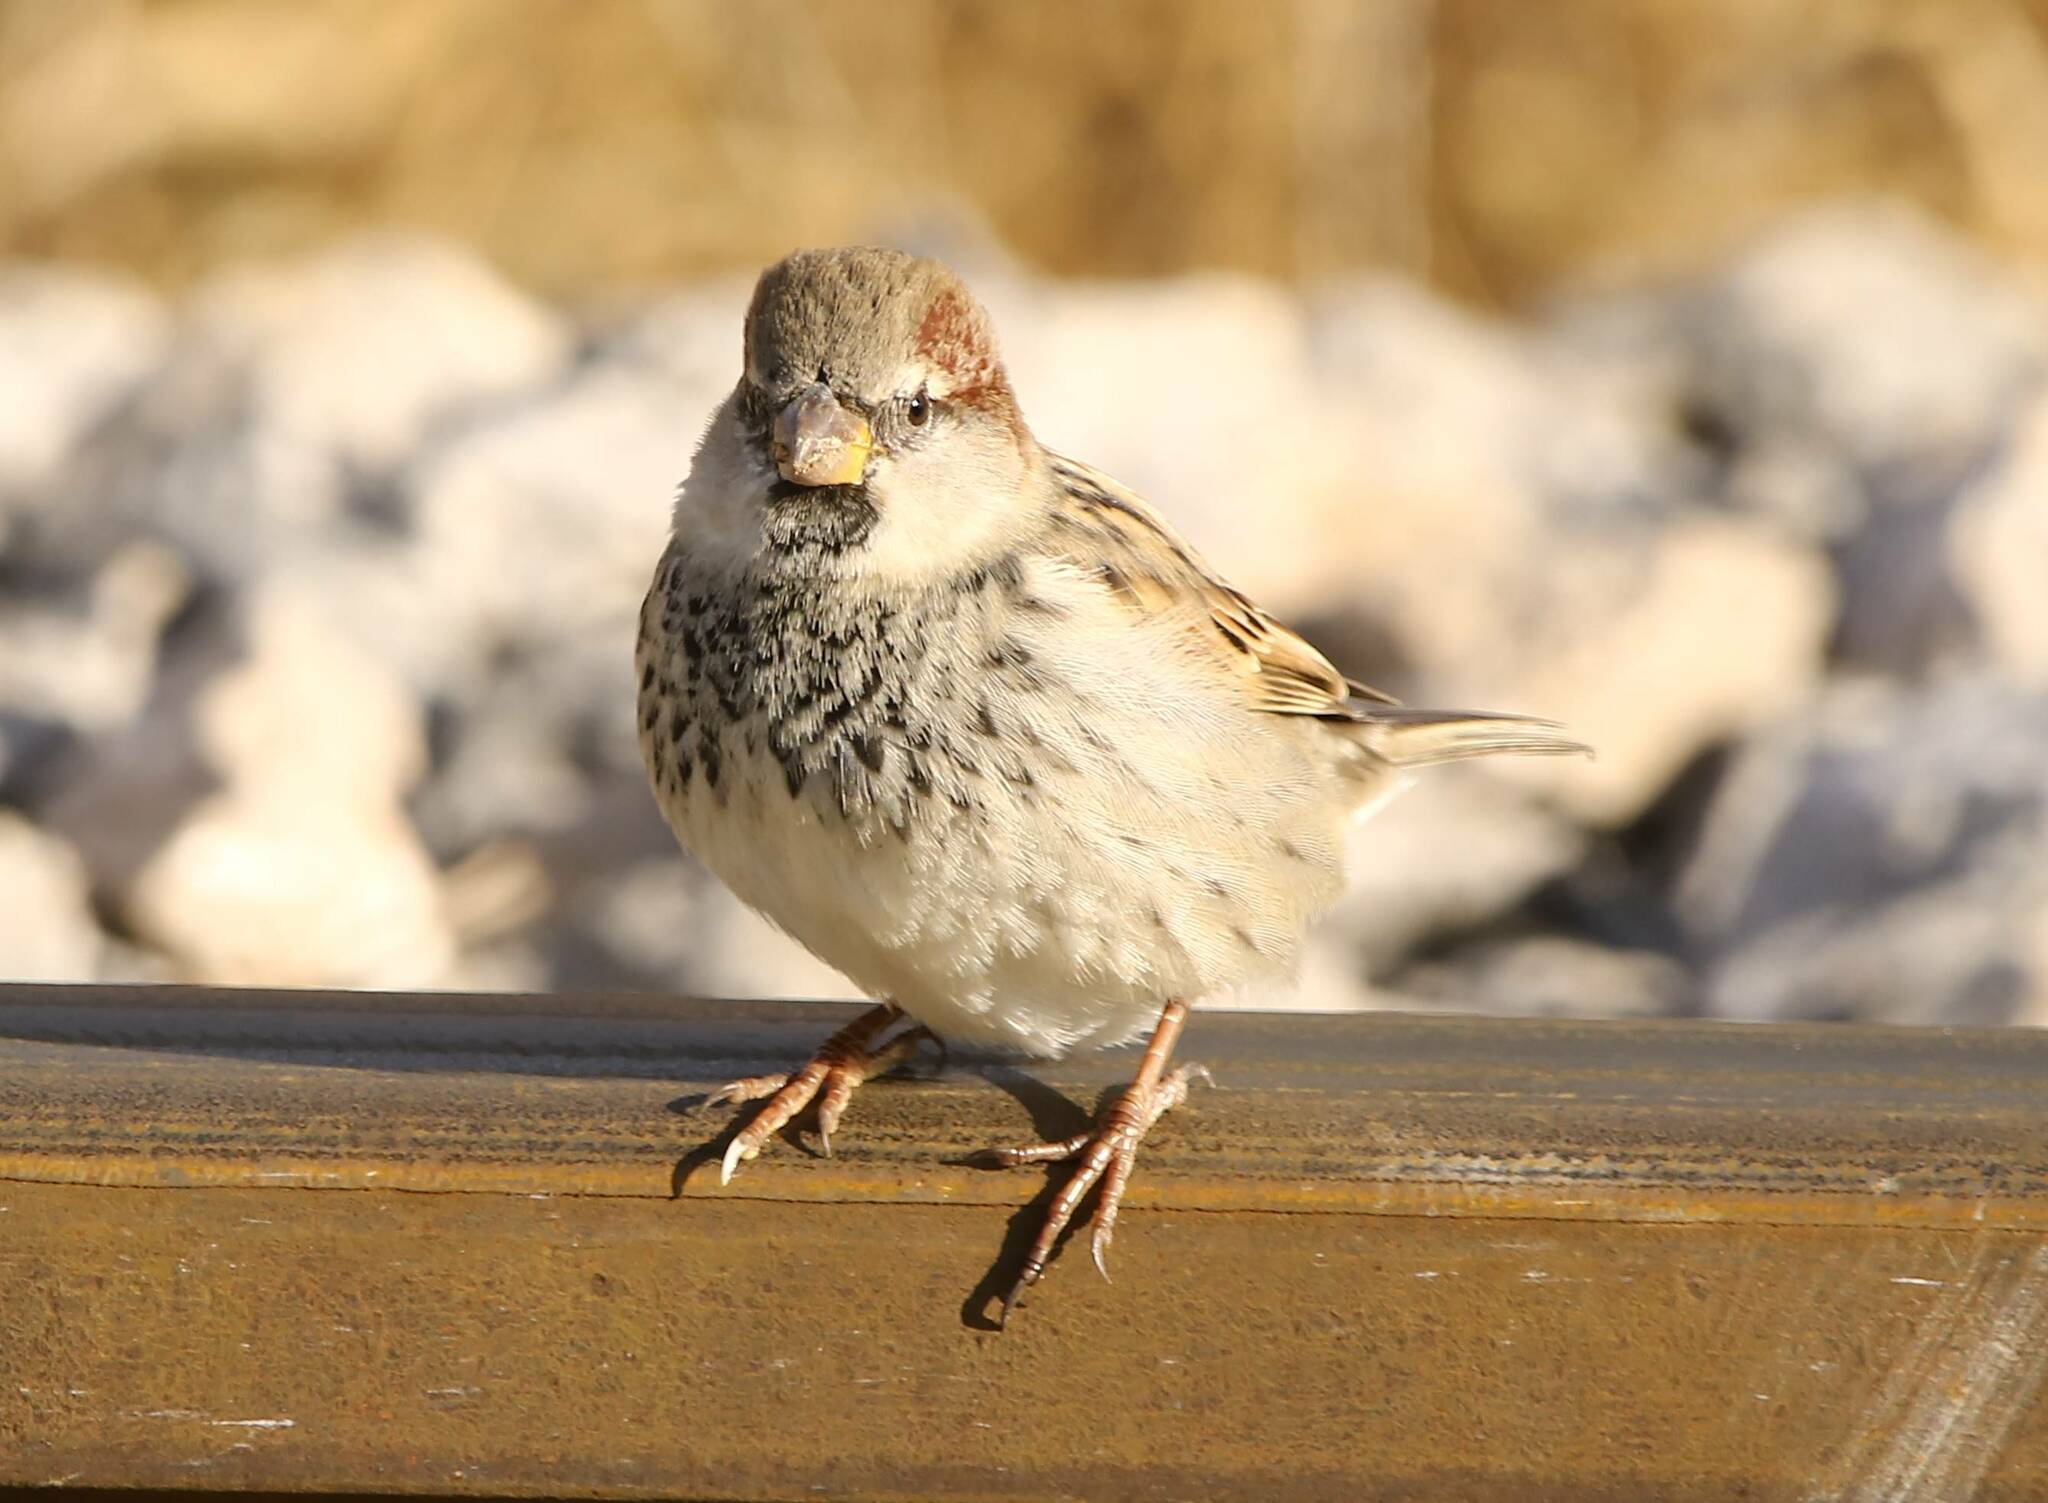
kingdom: Animalia
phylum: Chordata
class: Aves
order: Passeriformes
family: Passeridae
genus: Passer
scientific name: Passer domesticus
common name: House sparrow
